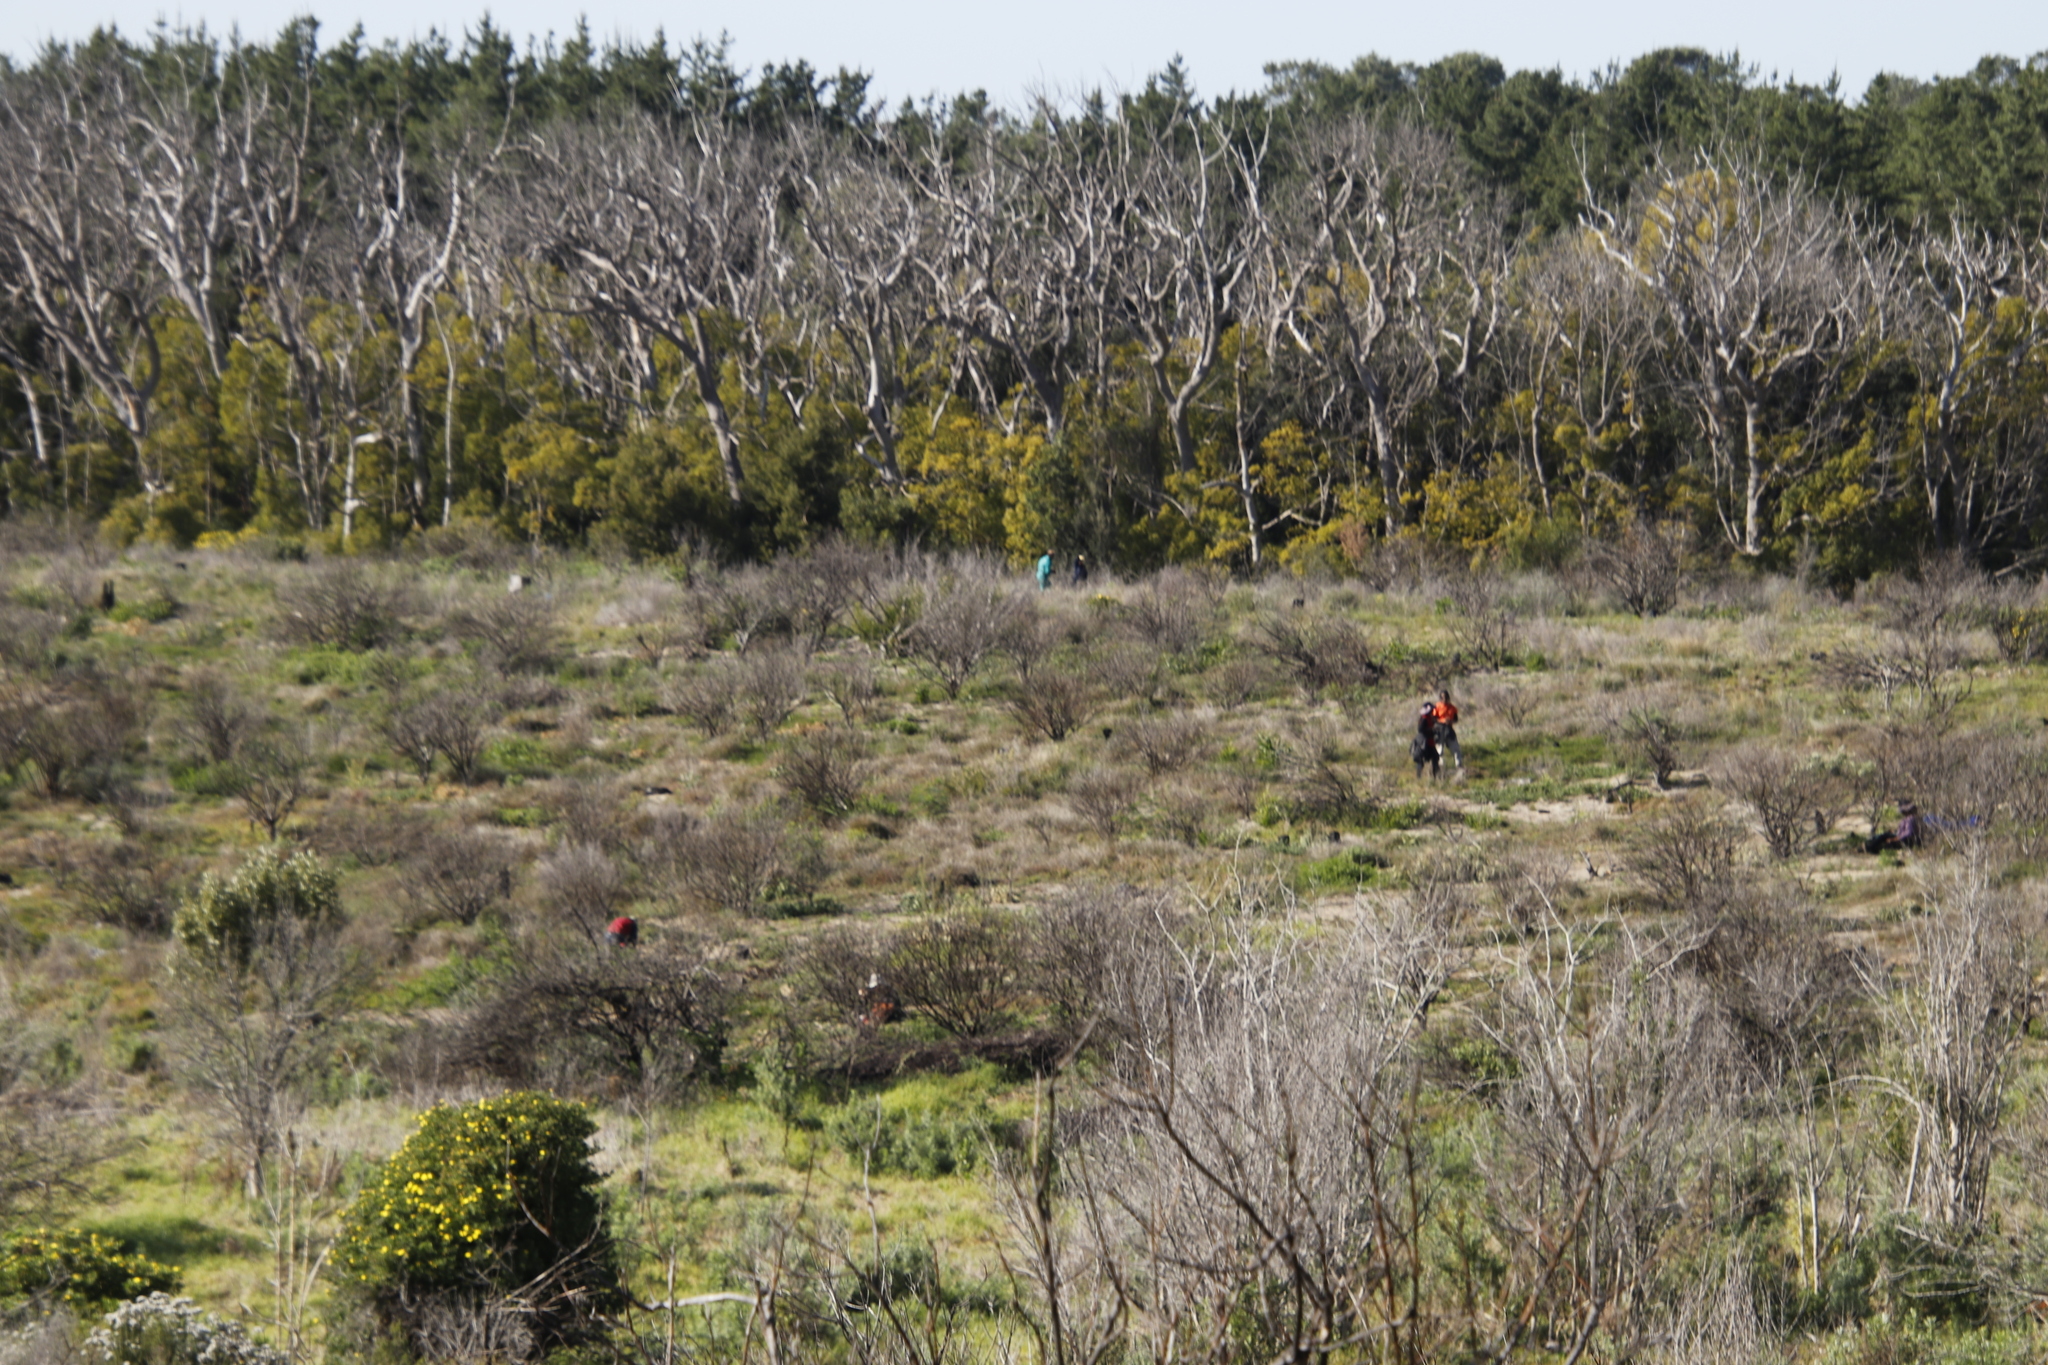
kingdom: Plantae
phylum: Tracheophyta
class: Magnoliopsida
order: Asterales
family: Asteraceae
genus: Osmitopsis
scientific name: Osmitopsis asteriscoides
